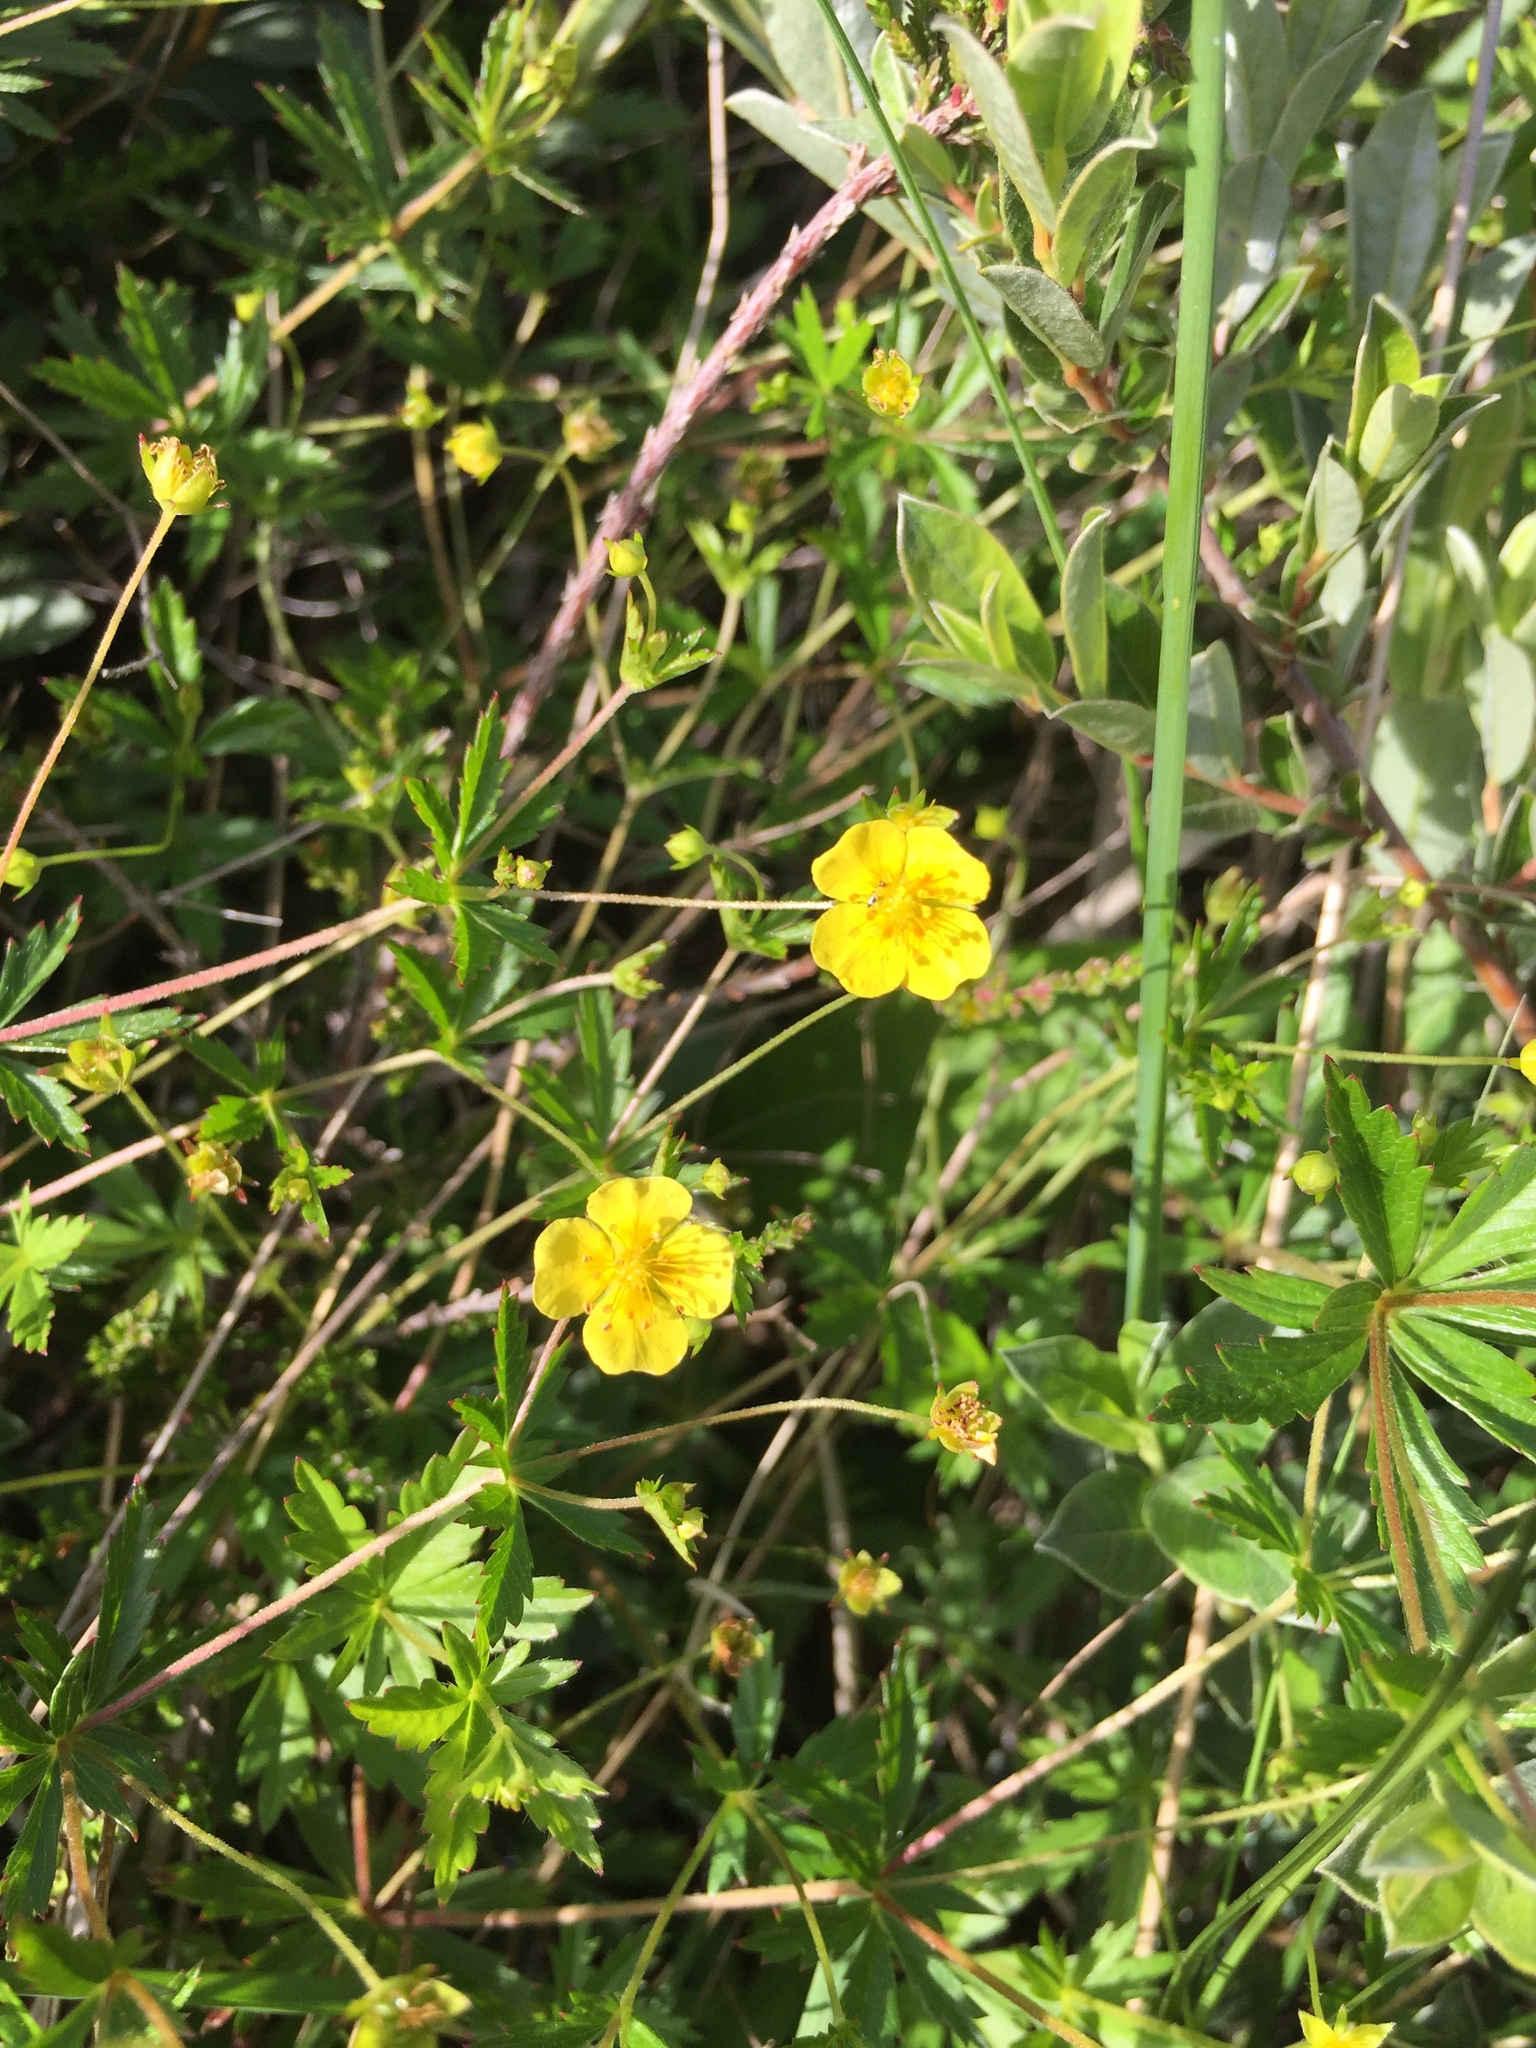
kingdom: Plantae
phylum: Tracheophyta
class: Magnoliopsida
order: Rosales
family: Rosaceae
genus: Potentilla
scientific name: Potentilla erecta
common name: Tormentil
